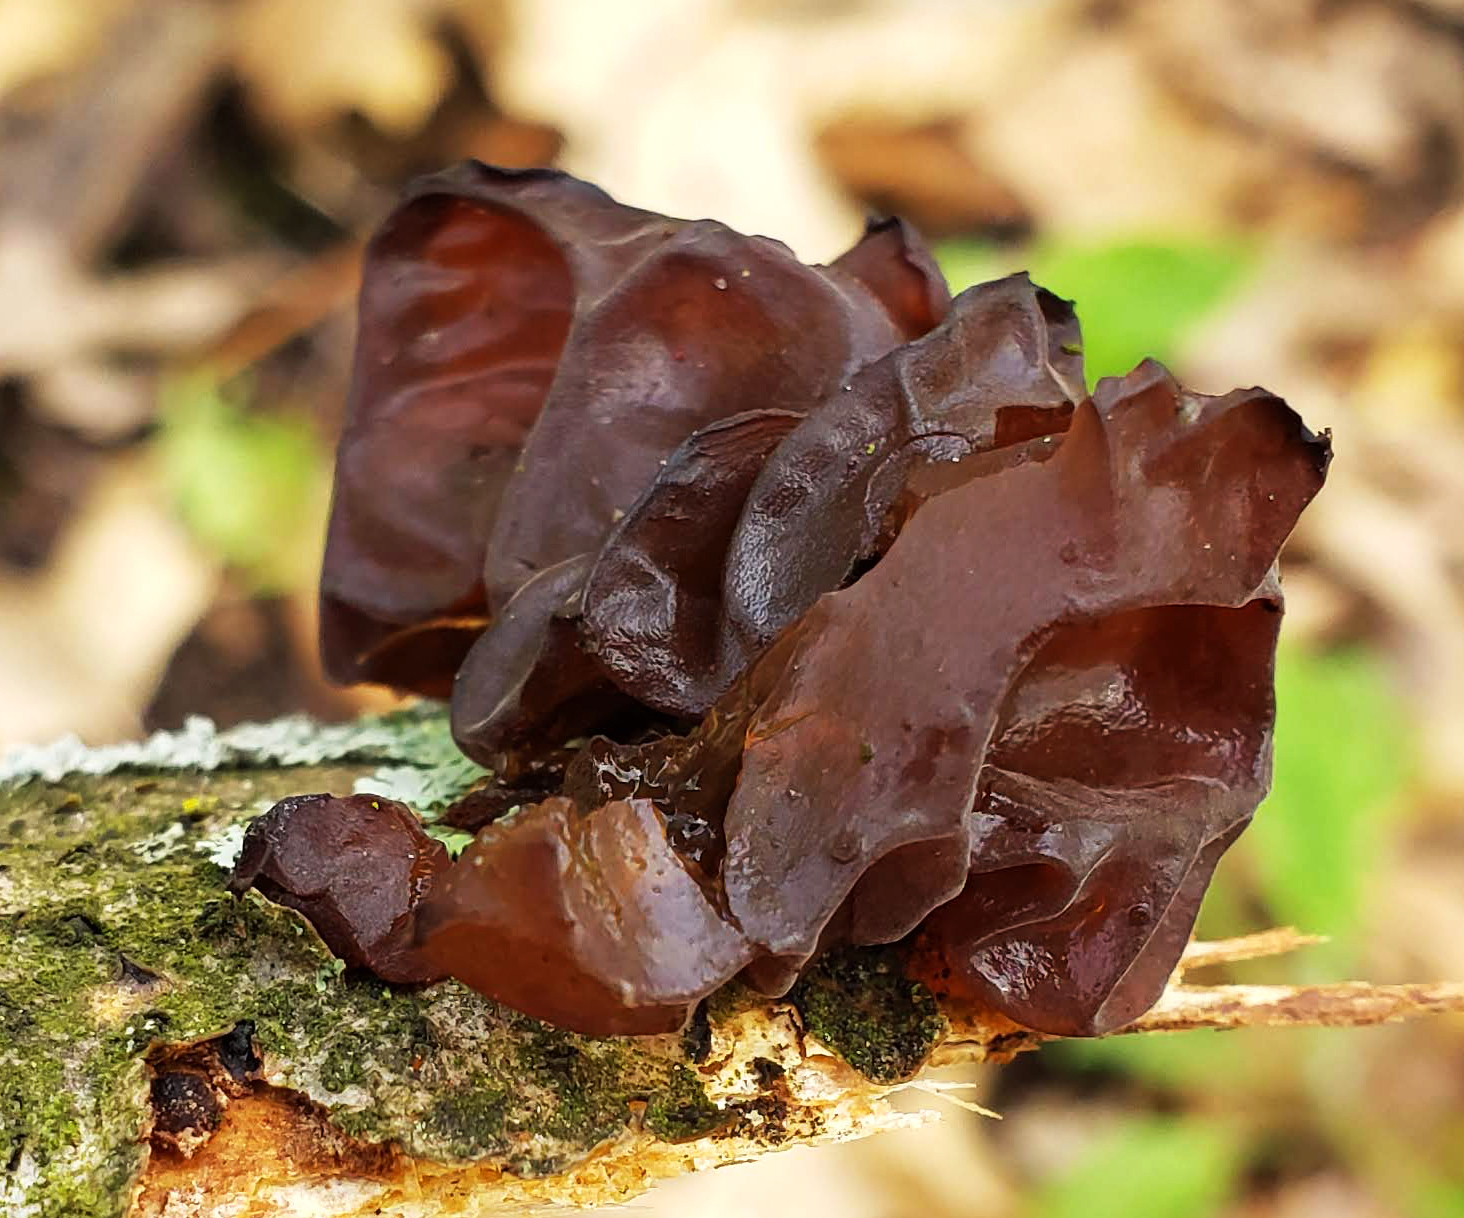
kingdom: Fungi
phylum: Basidiomycota
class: Agaricomycetes
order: Auriculariales
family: Auriculariaceae
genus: Exidia
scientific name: Exidia
